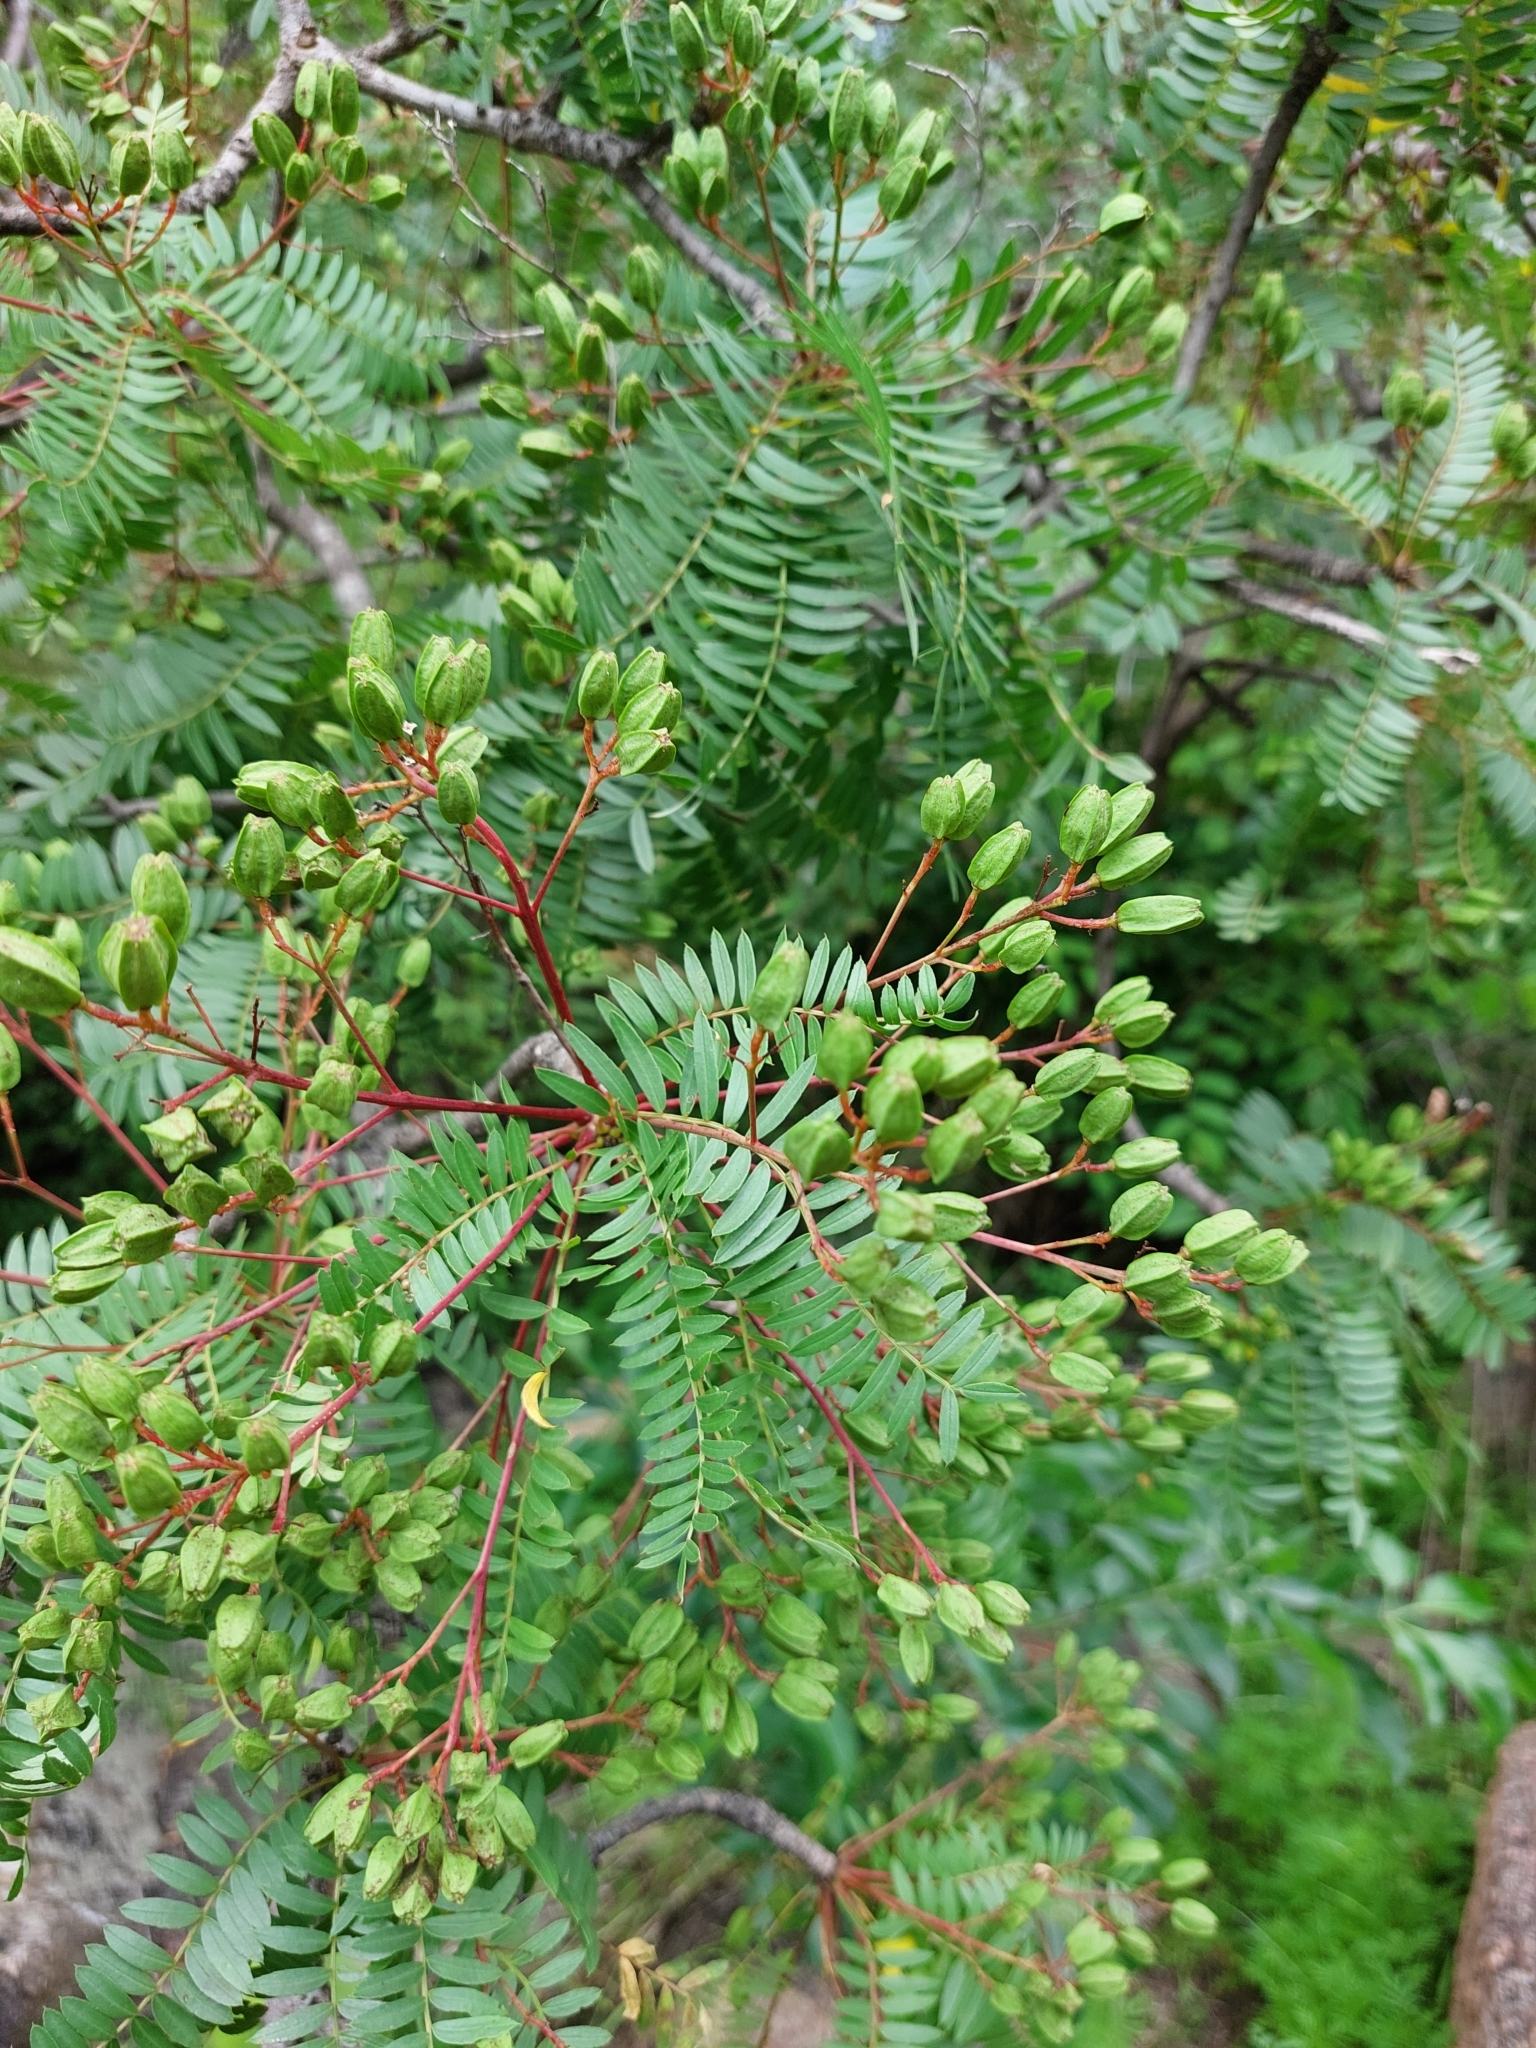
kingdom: Plantae
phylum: Tracheophyta
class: Magnoliopsida
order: Sapindales
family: Kirkiaceae
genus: Kirkia
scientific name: Kirkia wilmsii
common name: Mountain seringa
